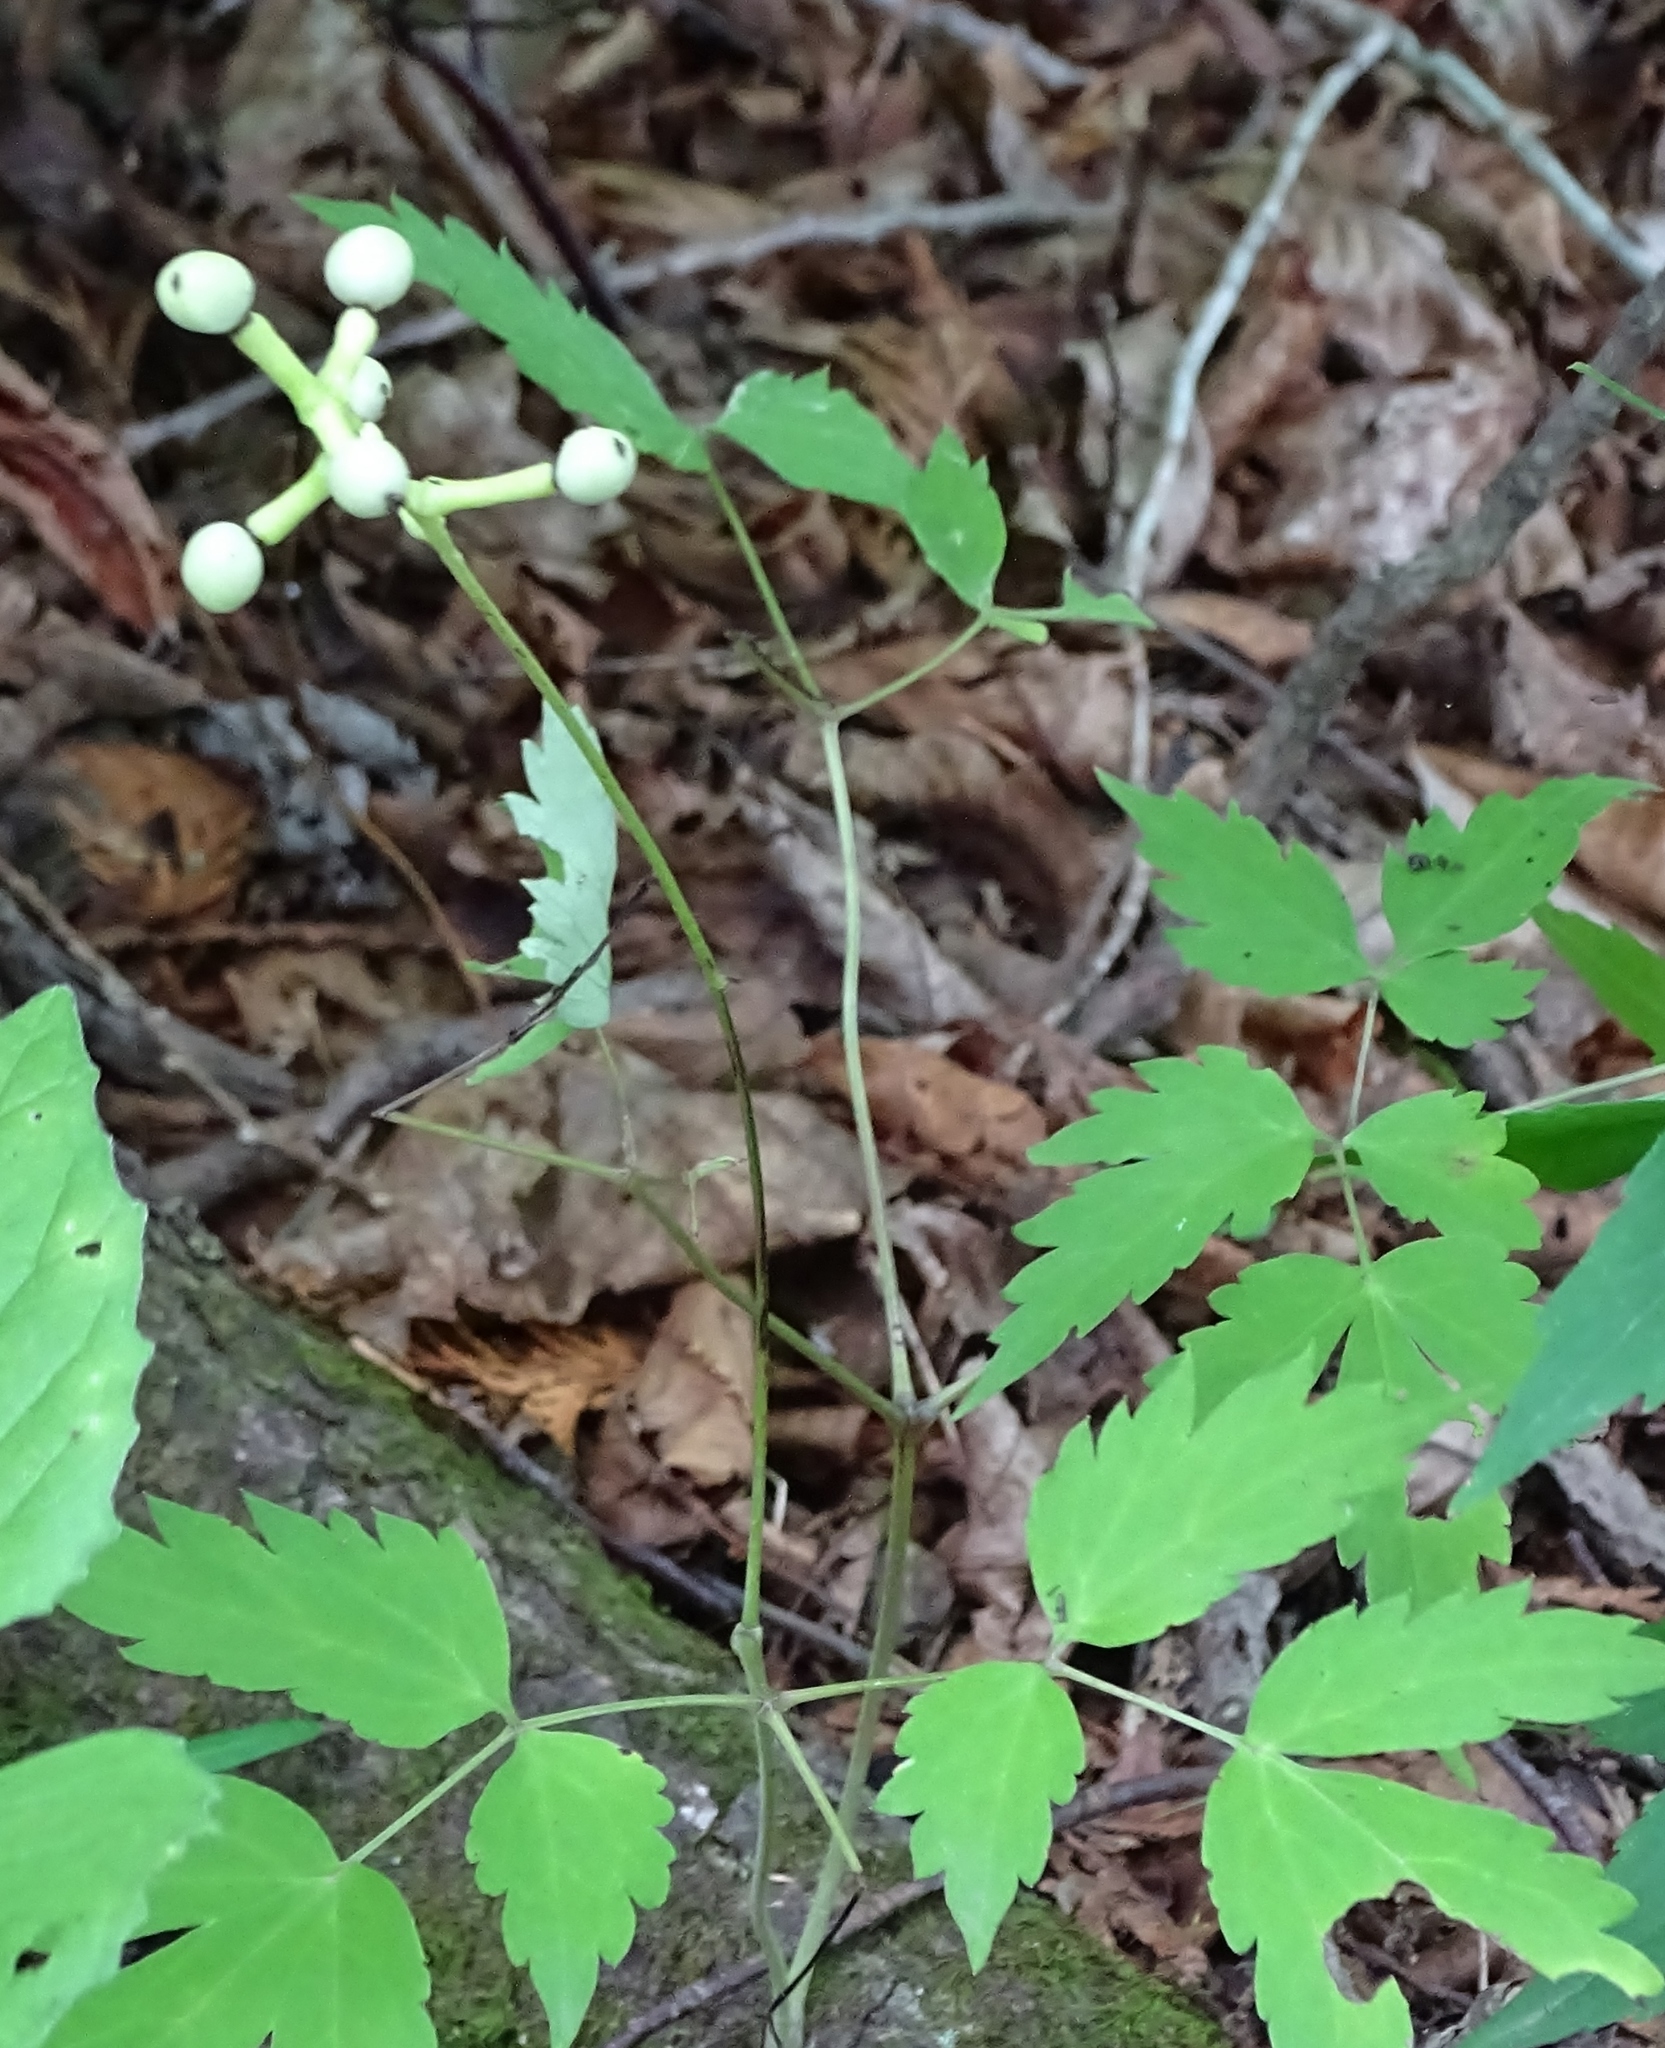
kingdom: Plantae
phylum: Tracheophyta
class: Magnoliopsida
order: Ranunculales
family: Ranunculaceae
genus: Actaea
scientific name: Actaea pachypoda
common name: Doll's-eyes
